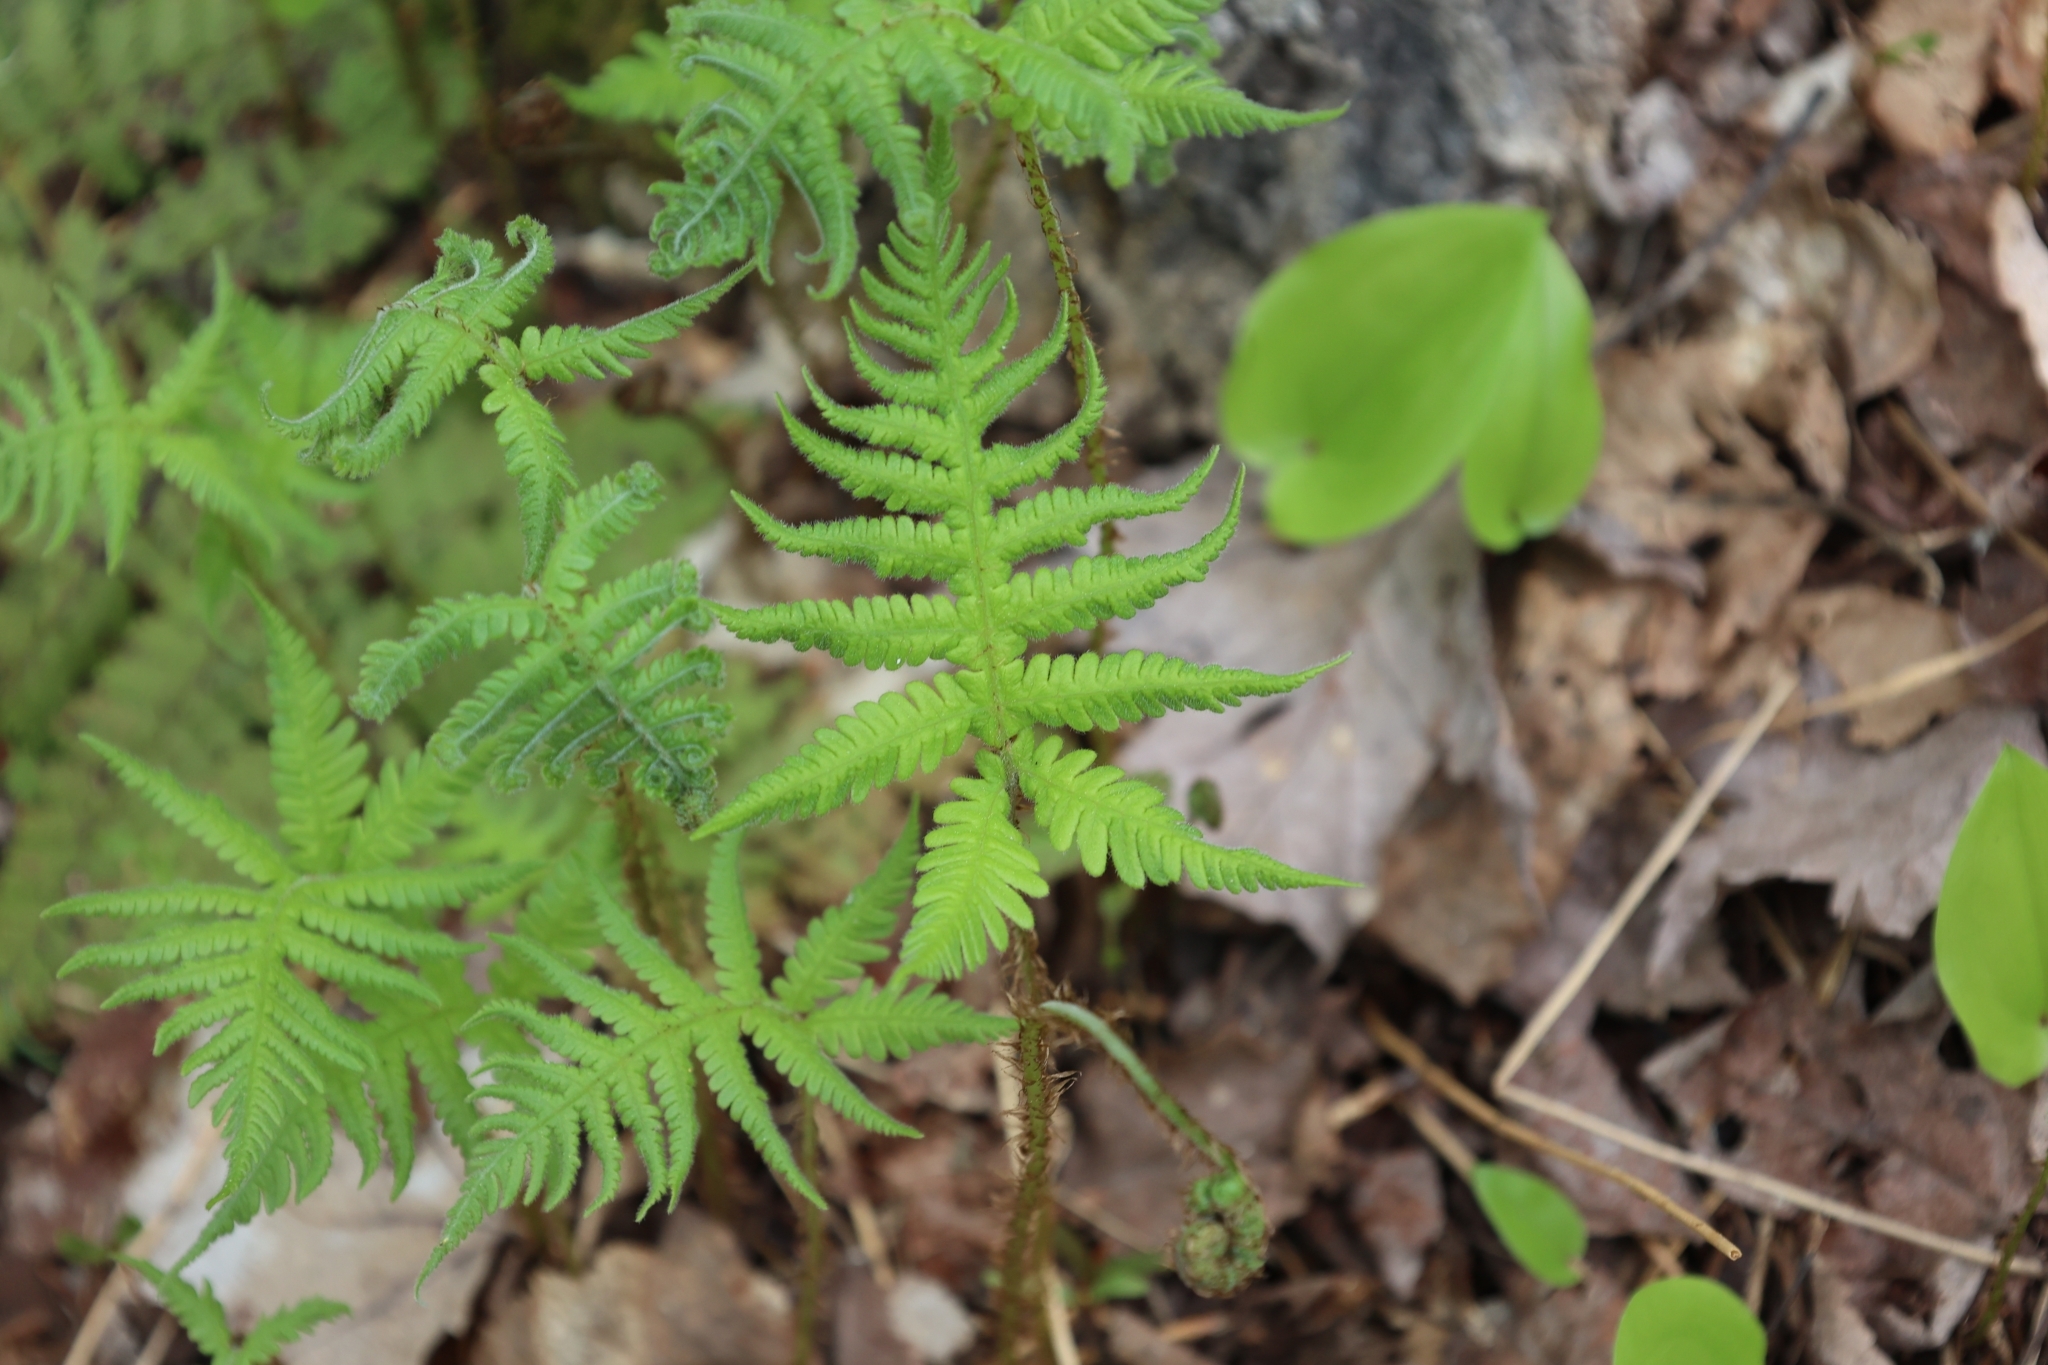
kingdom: Plantae
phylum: Tracheophyta
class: Polypodiopsida
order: Polypodiales
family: Thelypteridaceae
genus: Phegopteris
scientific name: Phegopteris connectilis
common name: Beech fern
